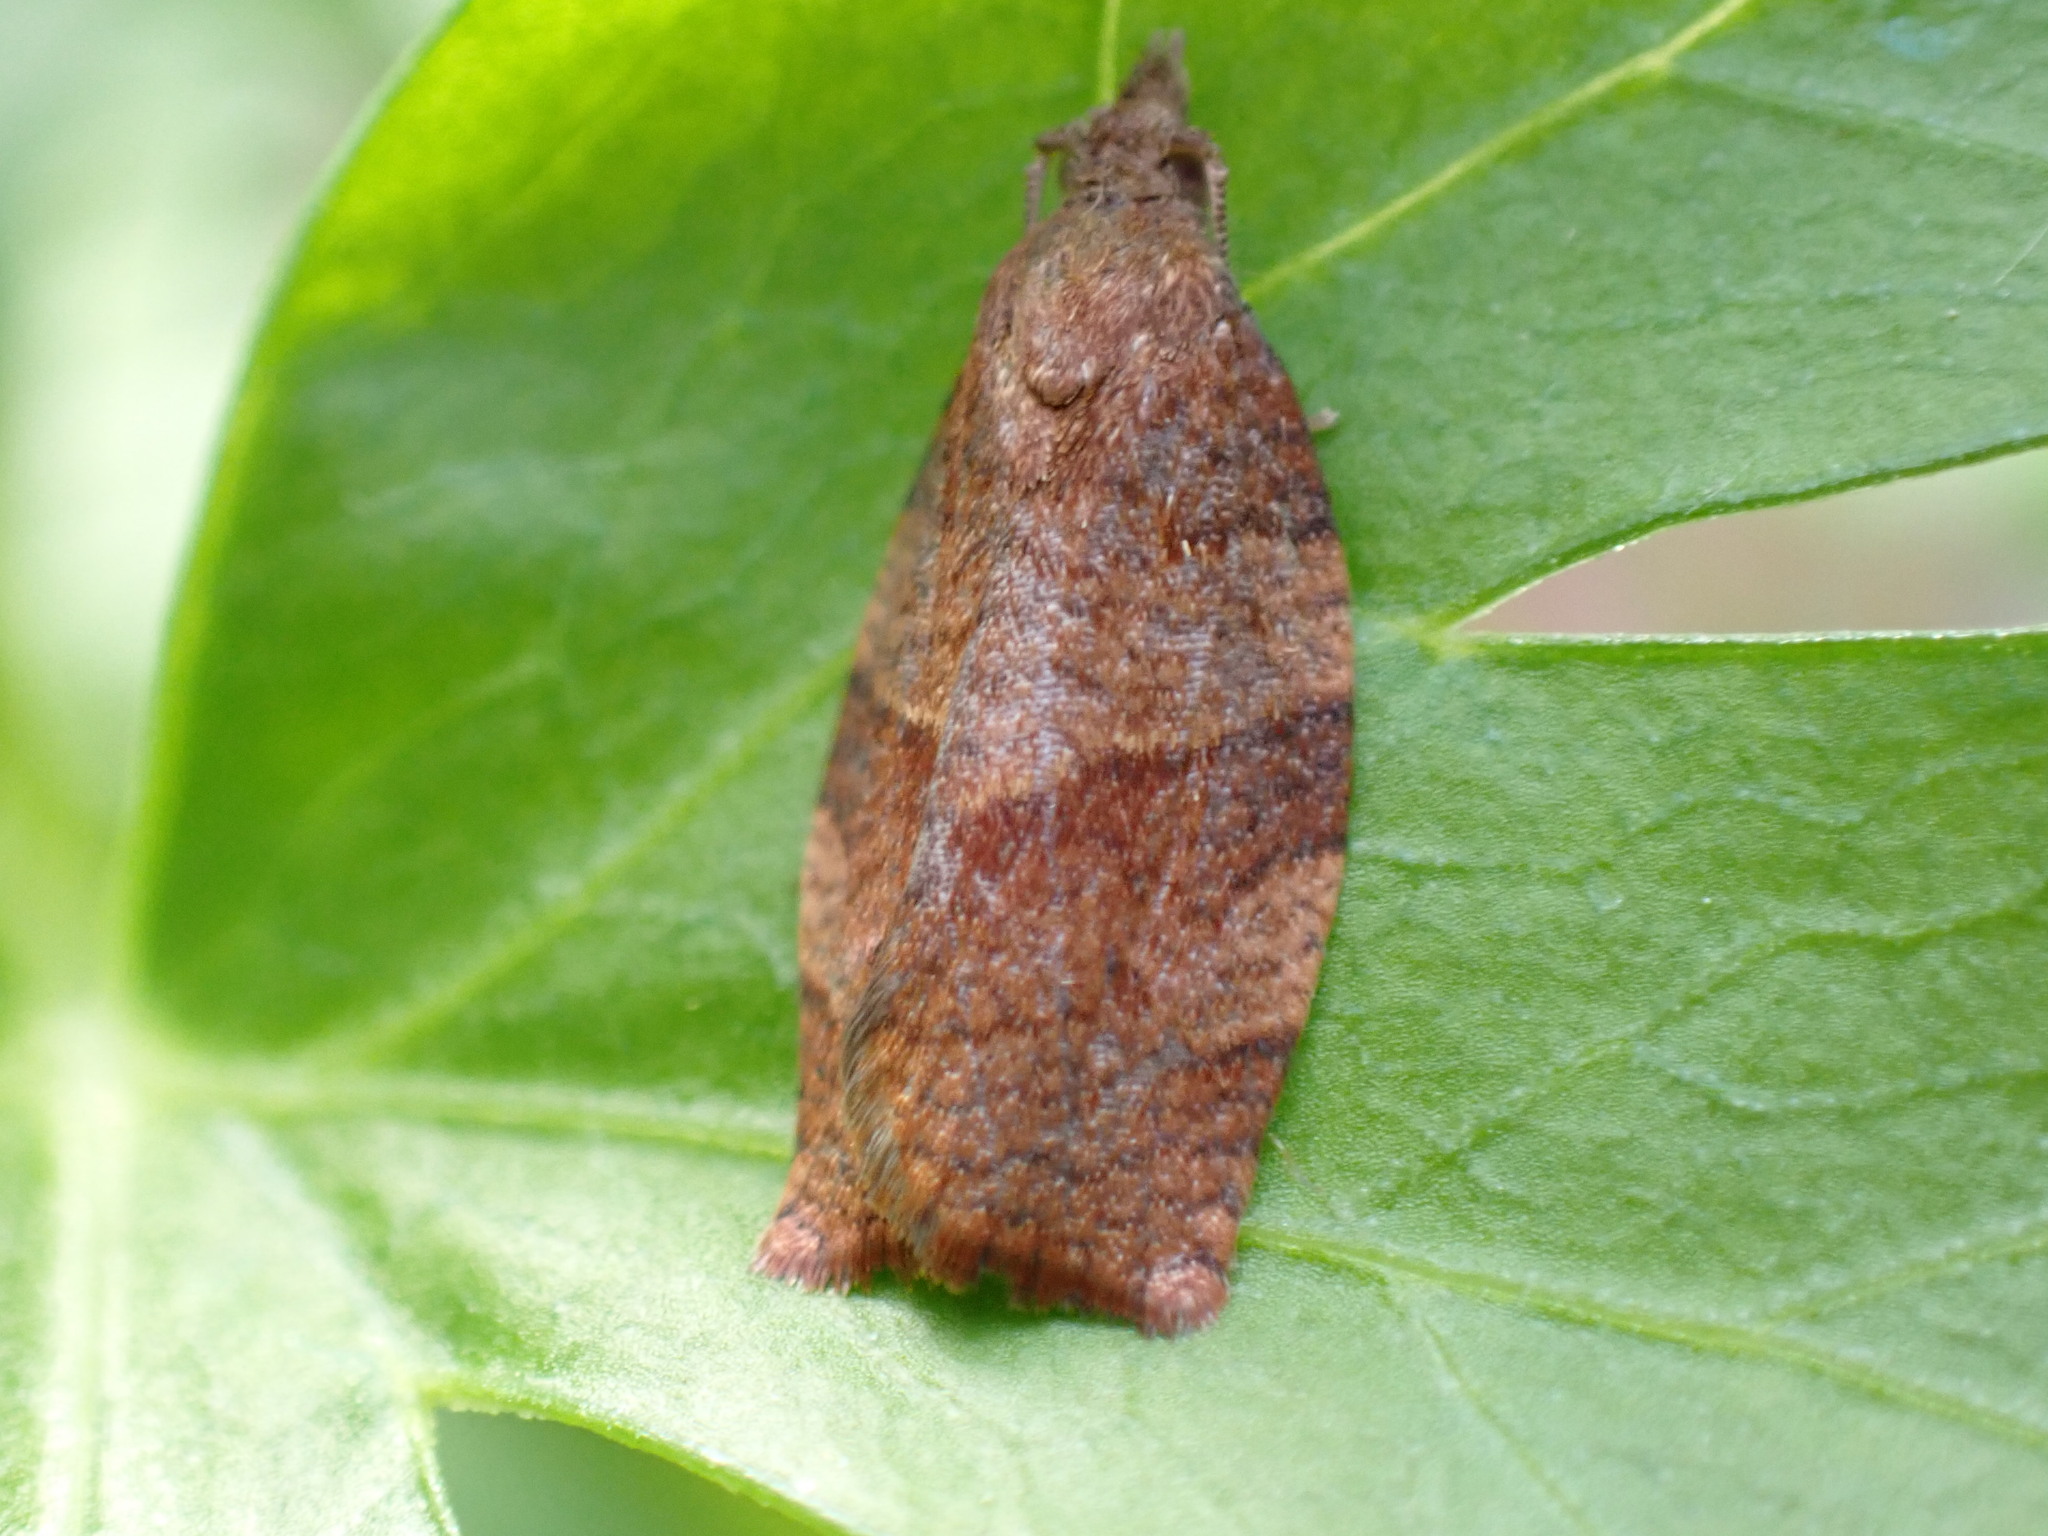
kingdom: Animalia
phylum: Arthropoda
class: Insecta
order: Lepidoptera
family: Tortricidae
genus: Pandemis
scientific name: Pandemis heparana
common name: Dark fruit-tree tortrix
